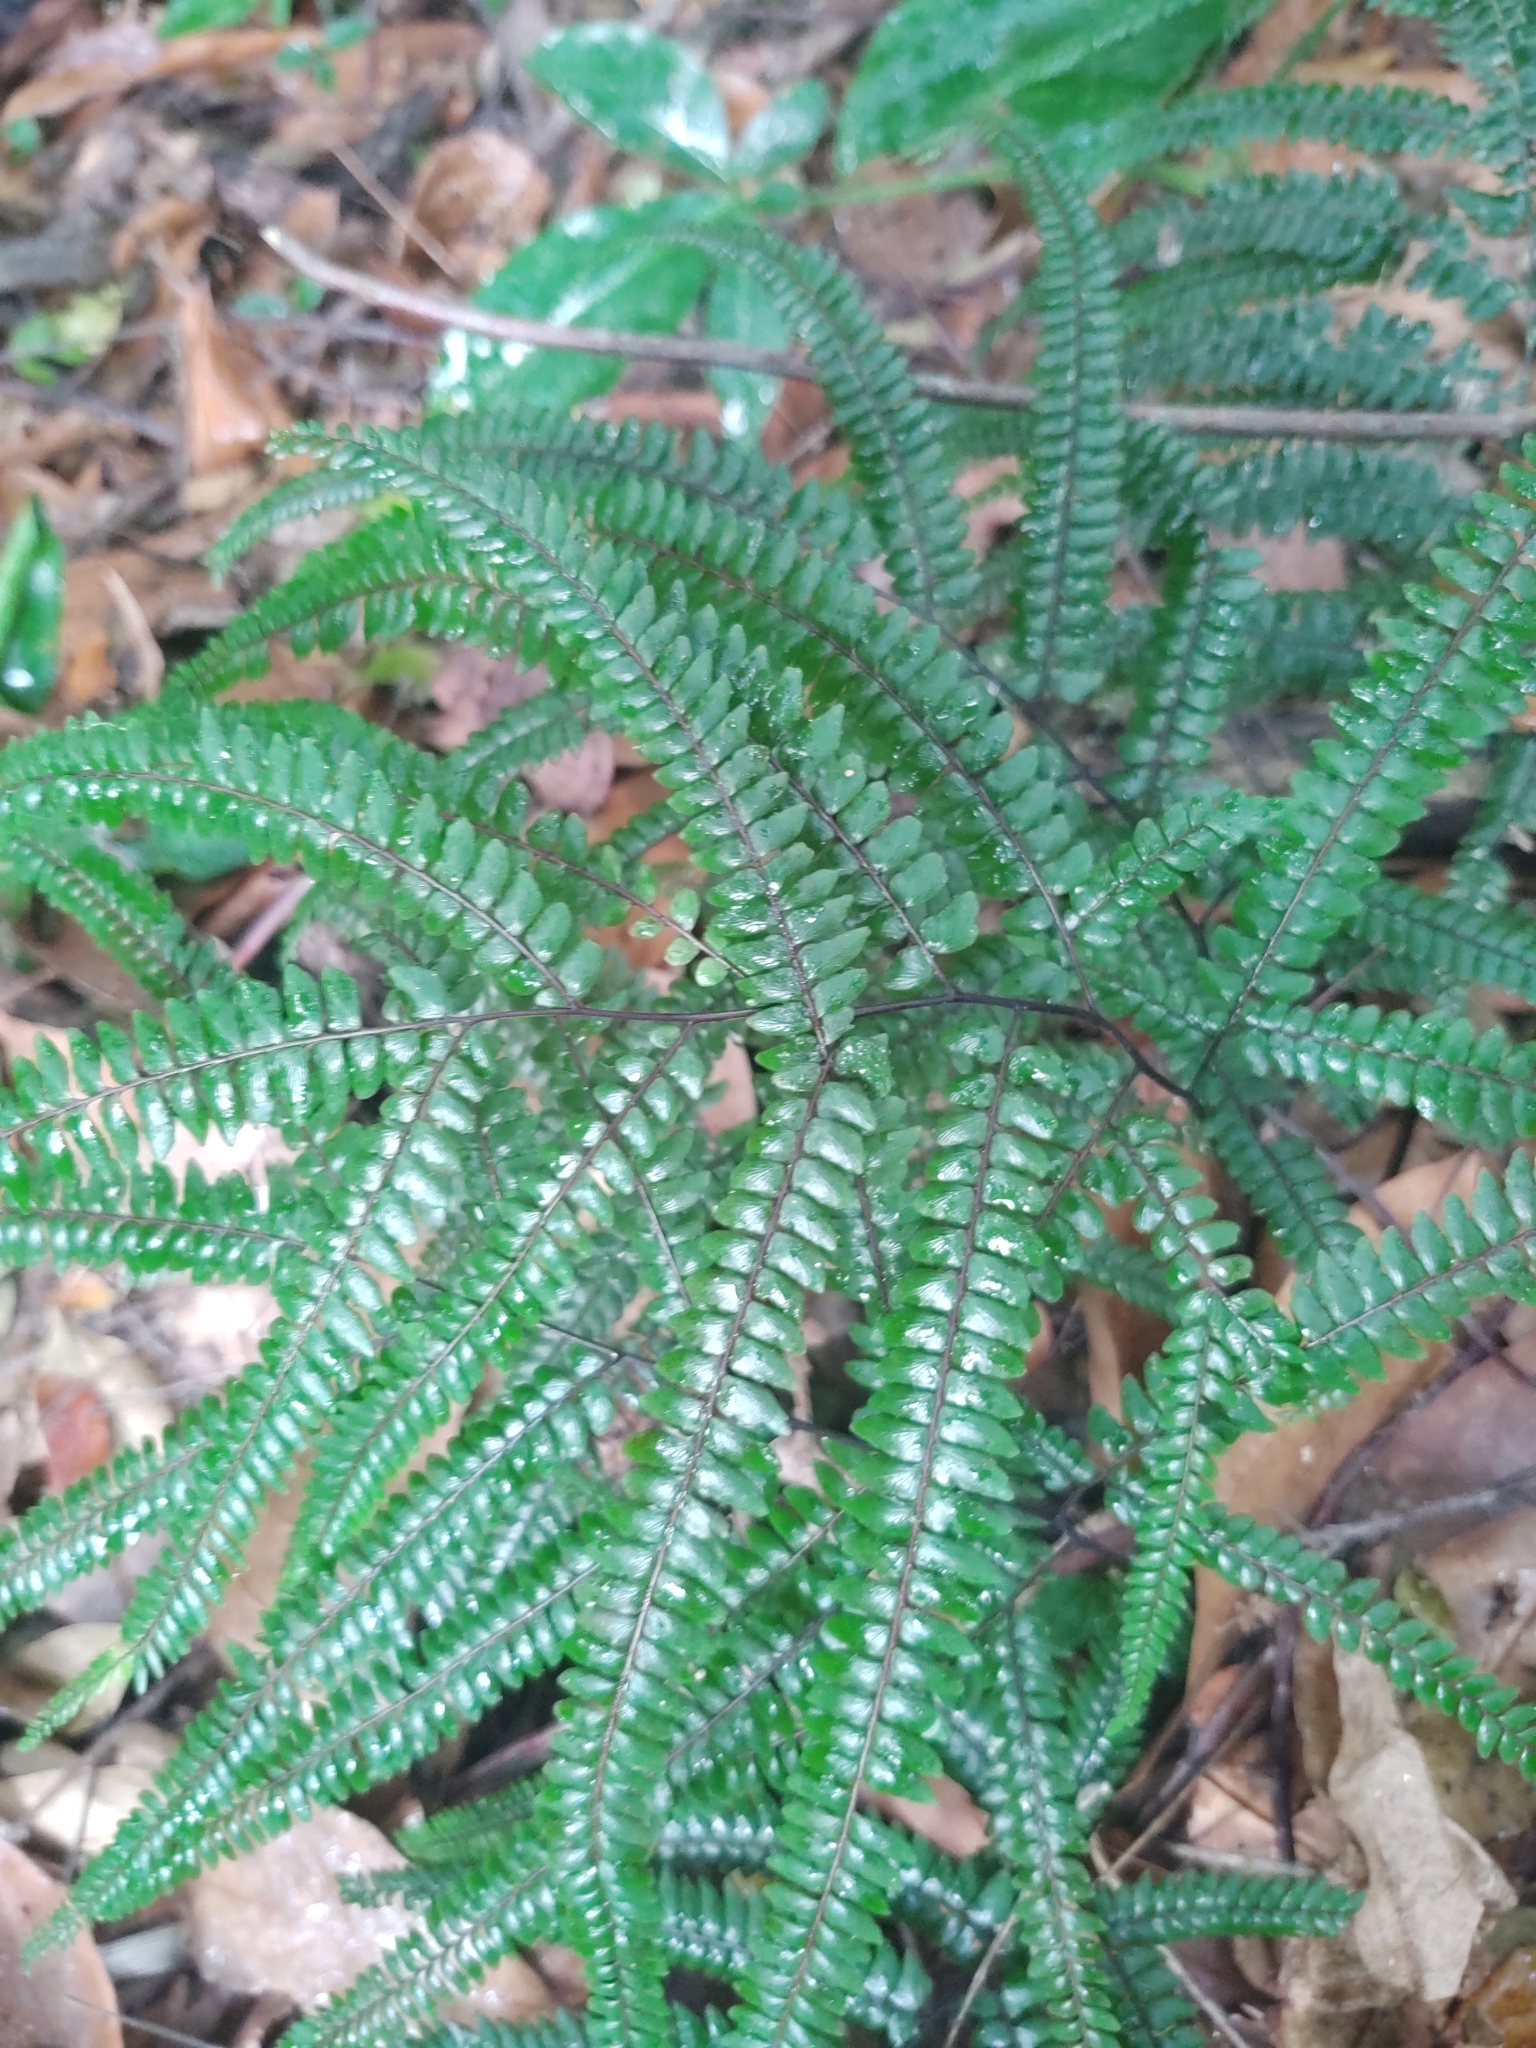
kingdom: Plantae
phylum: Tracheophyta
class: Polypodiopsida
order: Polypodiales
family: Pteridaceae
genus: Adiantum
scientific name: Adiantum pyramidale
